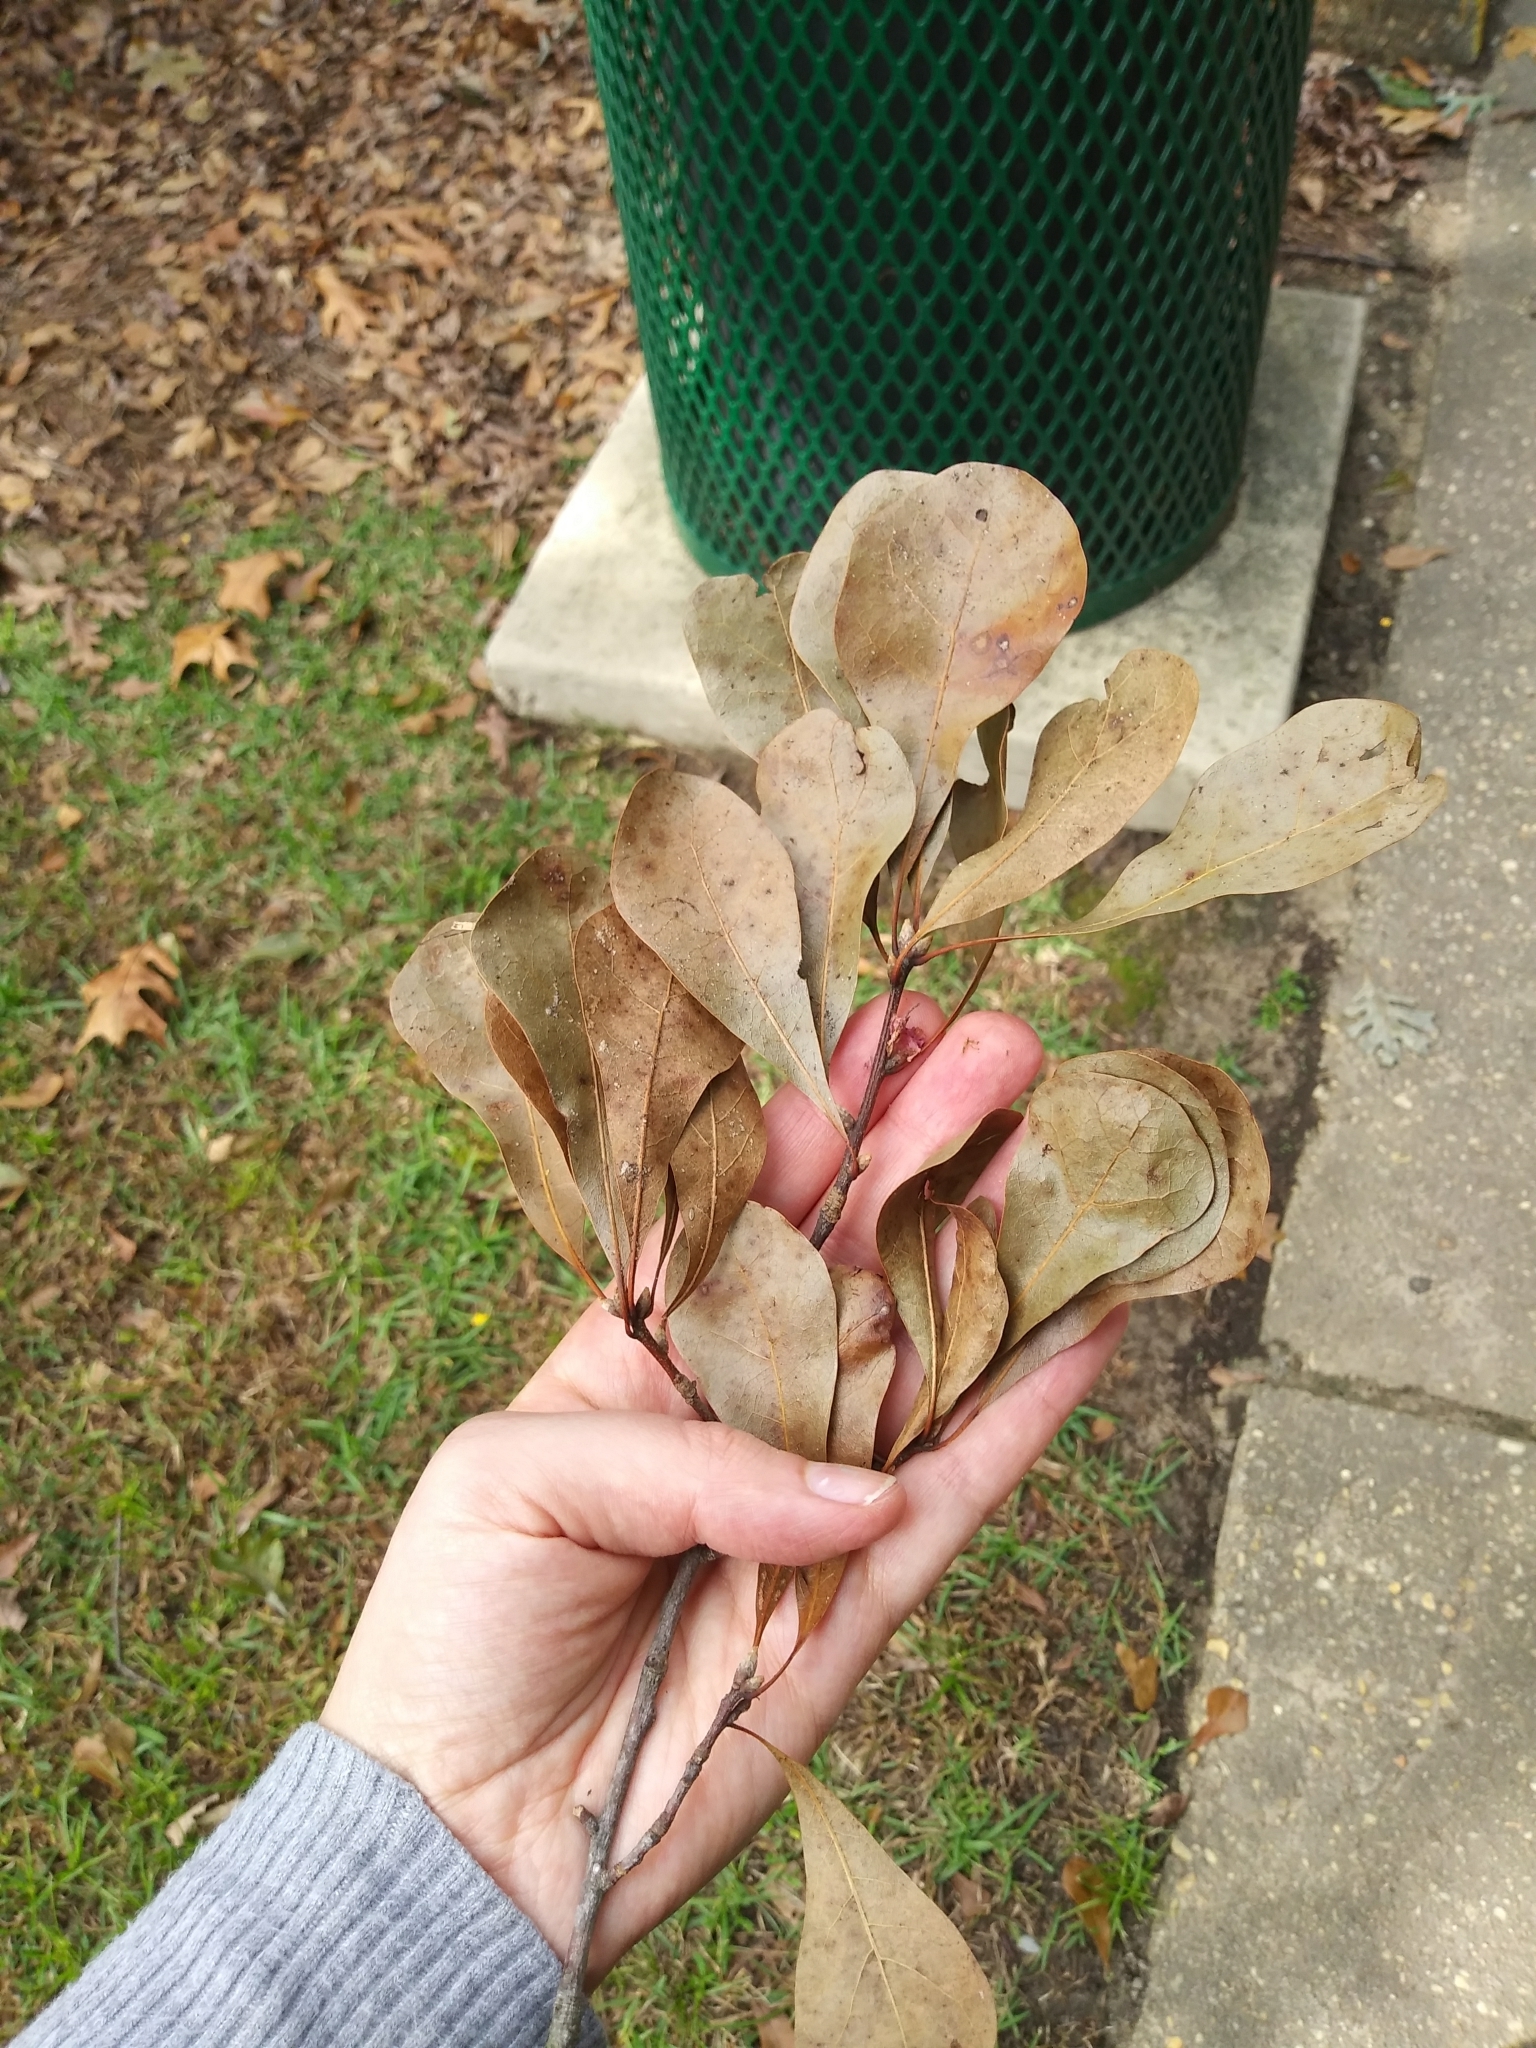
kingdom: Plantae
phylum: Tracheophyta
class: Magnoliopsida
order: Fagales
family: Fagaceae
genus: Quercus
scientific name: Quercus nigra
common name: Water oak
